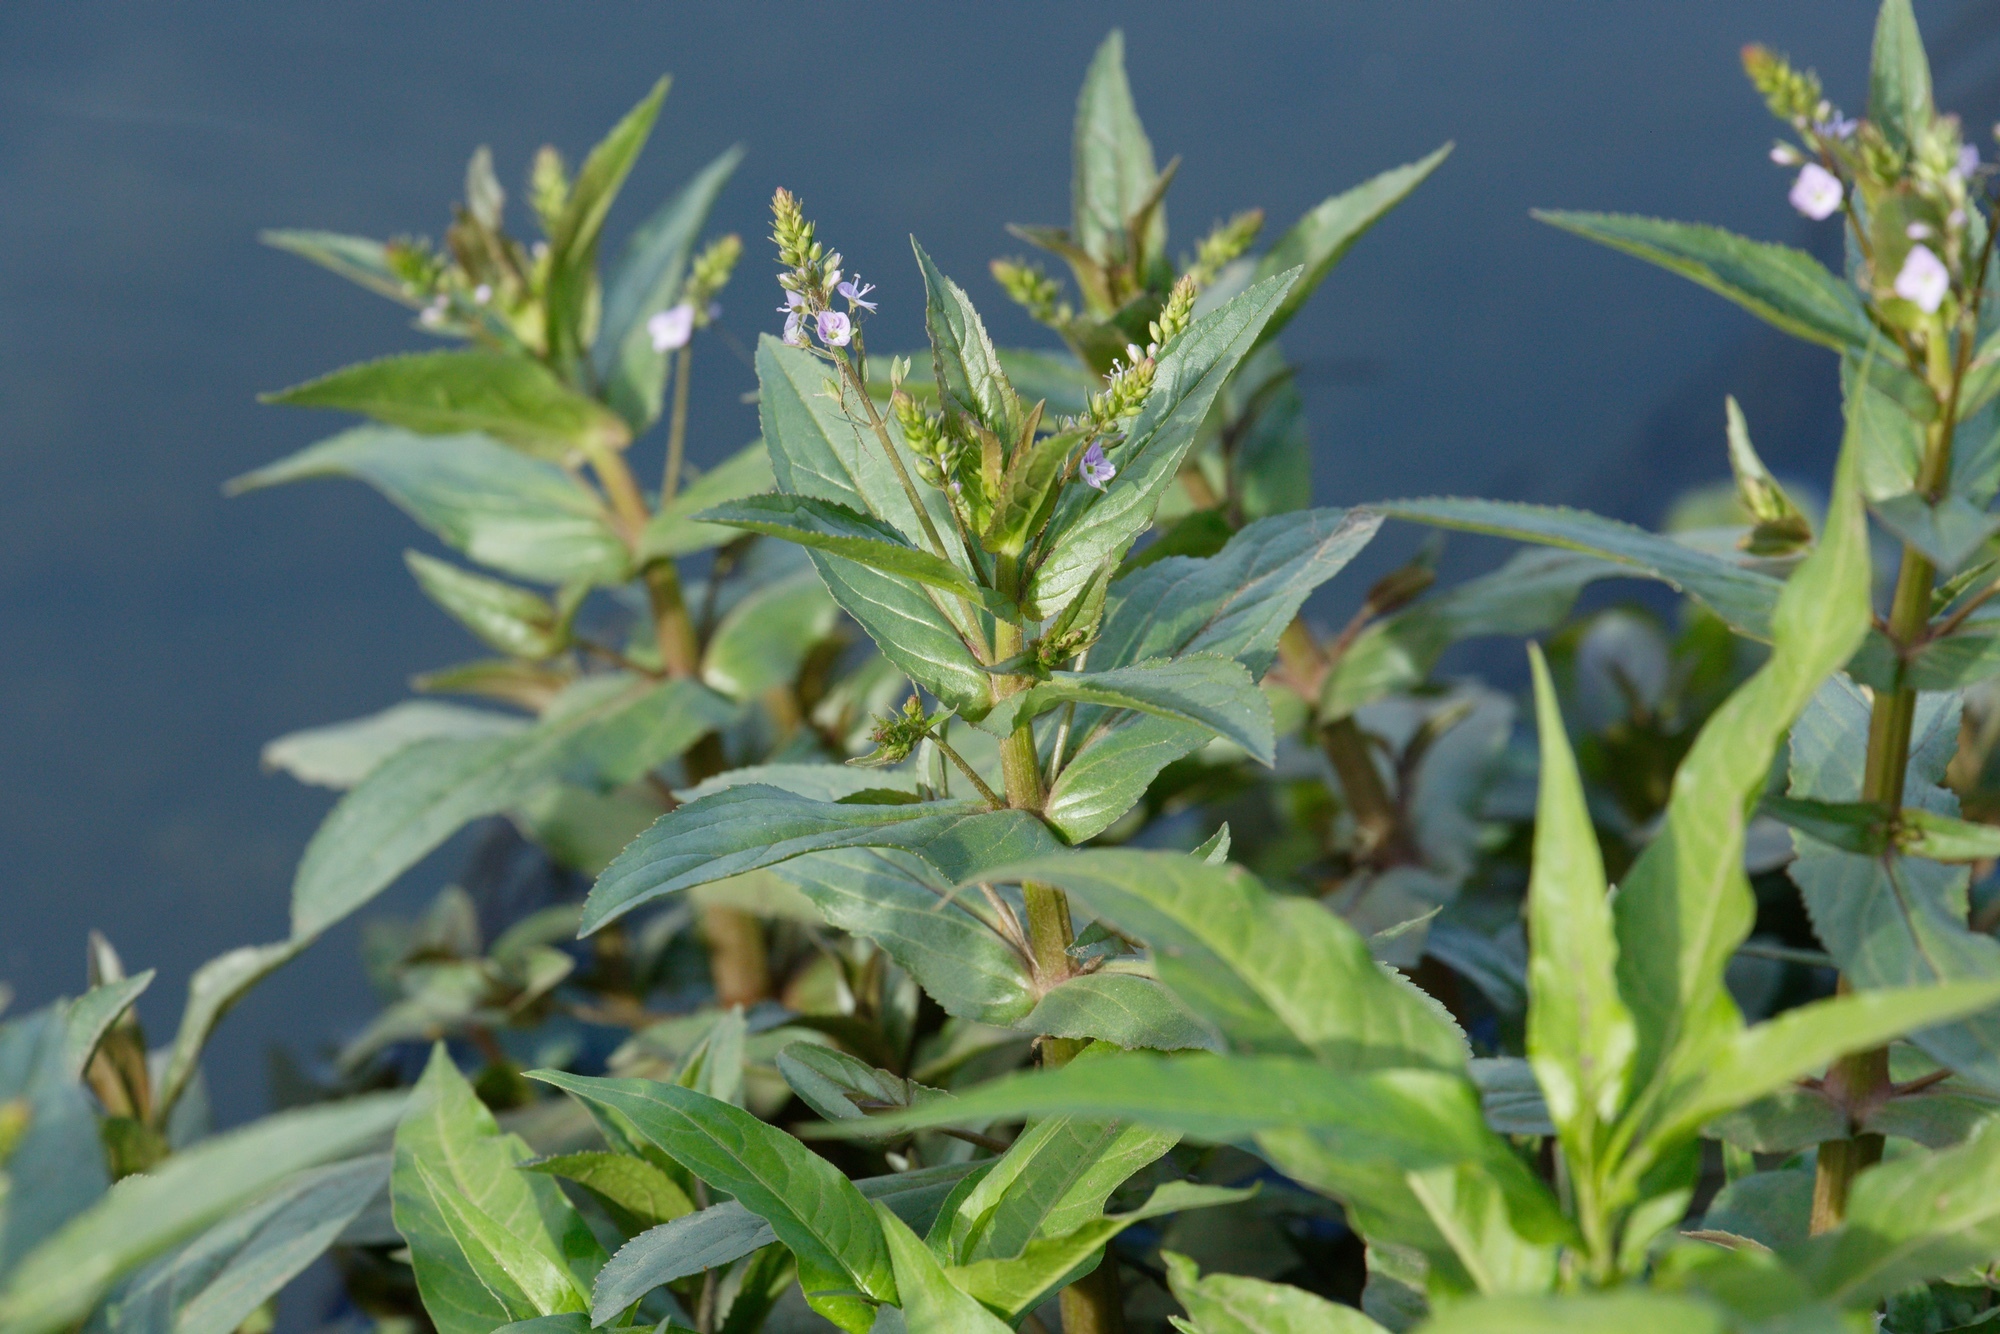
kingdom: Plantae
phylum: Tracheophyta
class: Magnoliopsida
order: Lamiales
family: Plantaginaceae
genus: Veronica
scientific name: Veronica anagallis-aquatica
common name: Water speedwell
